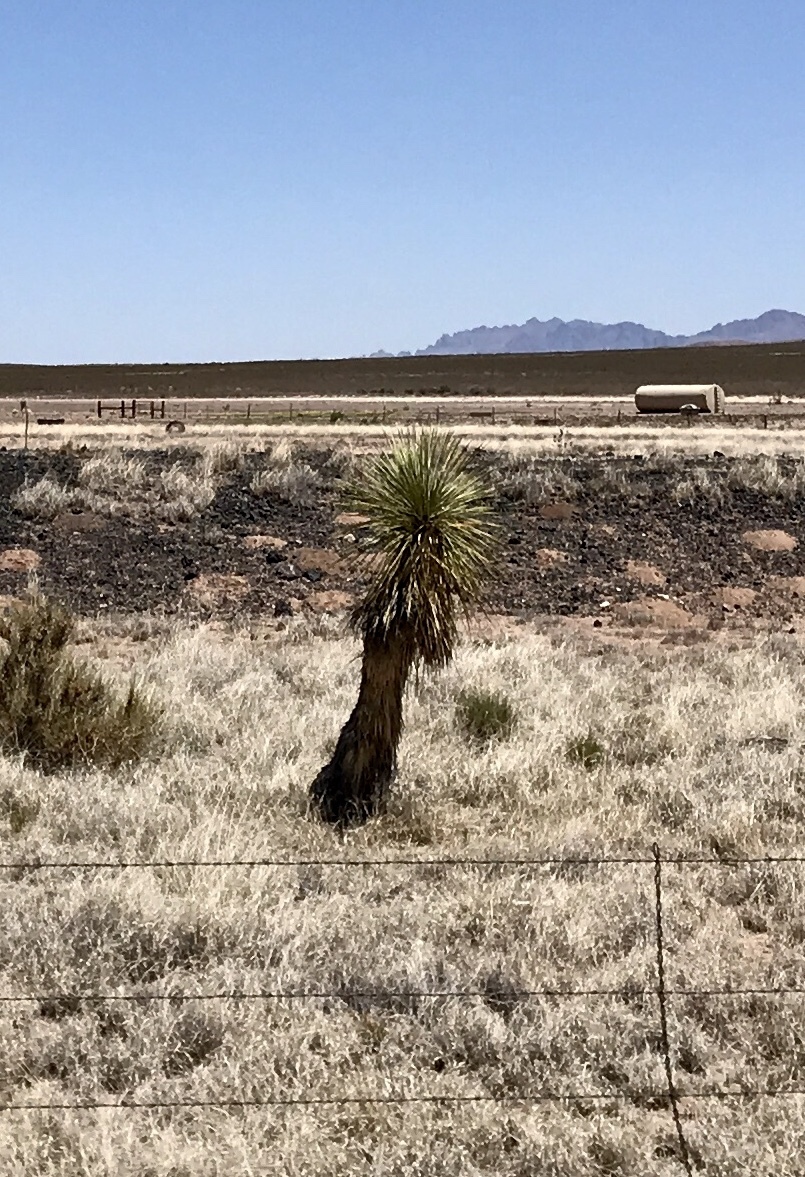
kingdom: Plantae
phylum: Tracheophyta
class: Liliopsida
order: Asparagales
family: Asparagaceae
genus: Yucca
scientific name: Yucca elata
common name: Palmella
